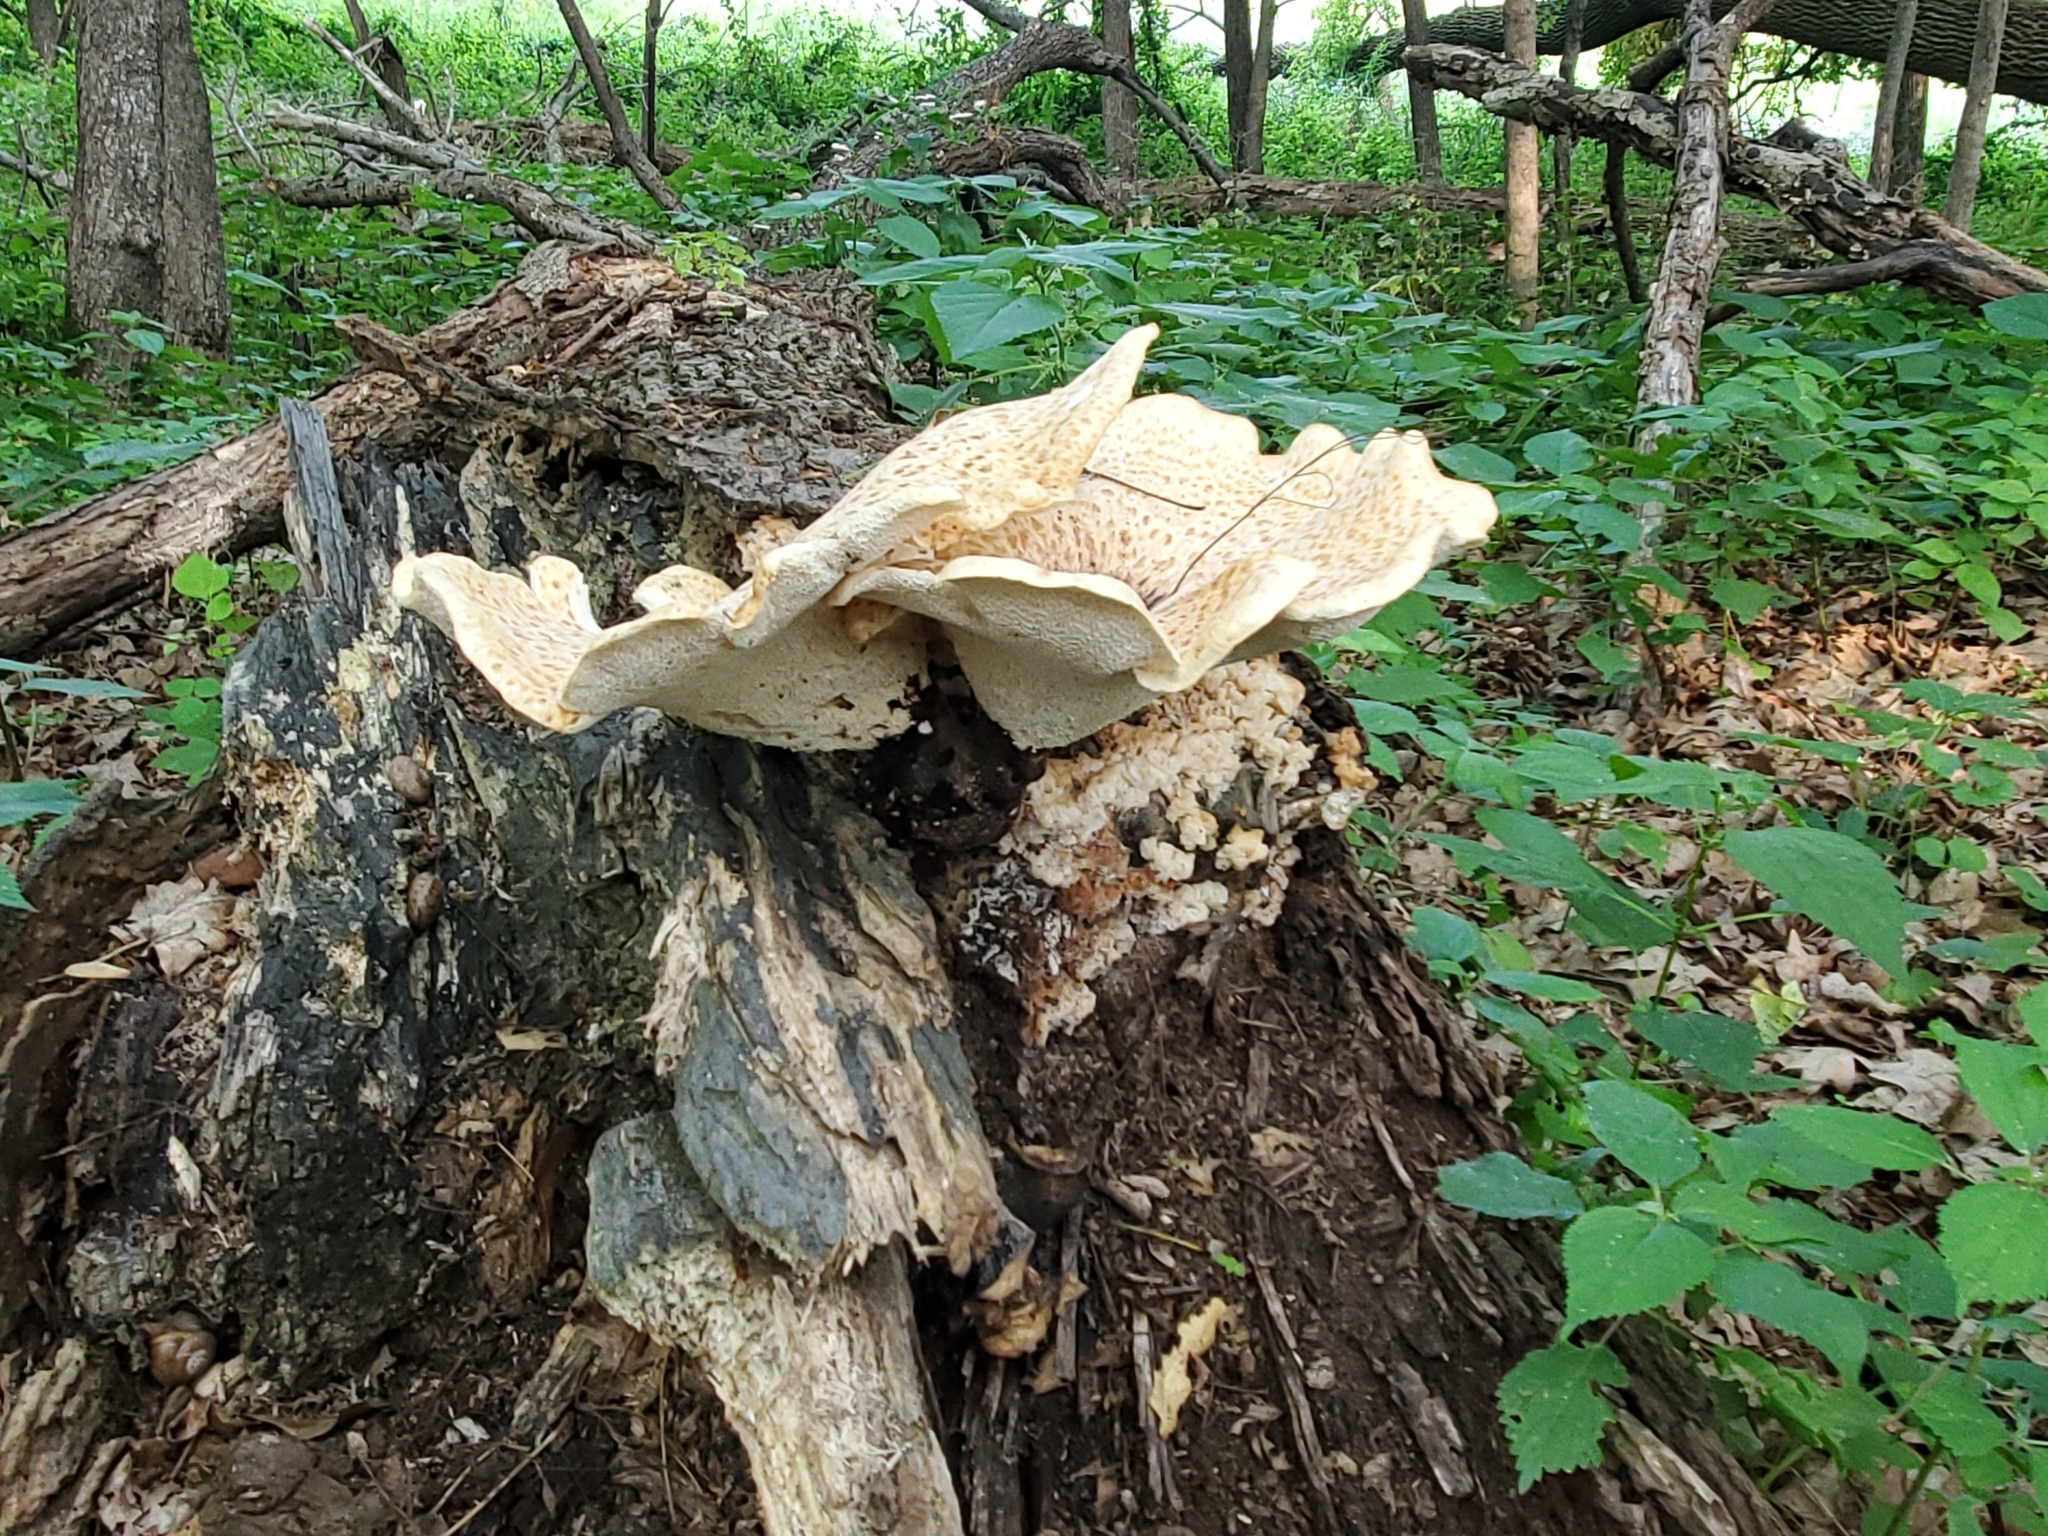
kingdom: Fungi
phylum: Basidiomycota
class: Agaricomycetes
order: Polyporales
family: Polyporaceae
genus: Cerioporus
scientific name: Cerioporus squamosus
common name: Dryad's saddle
